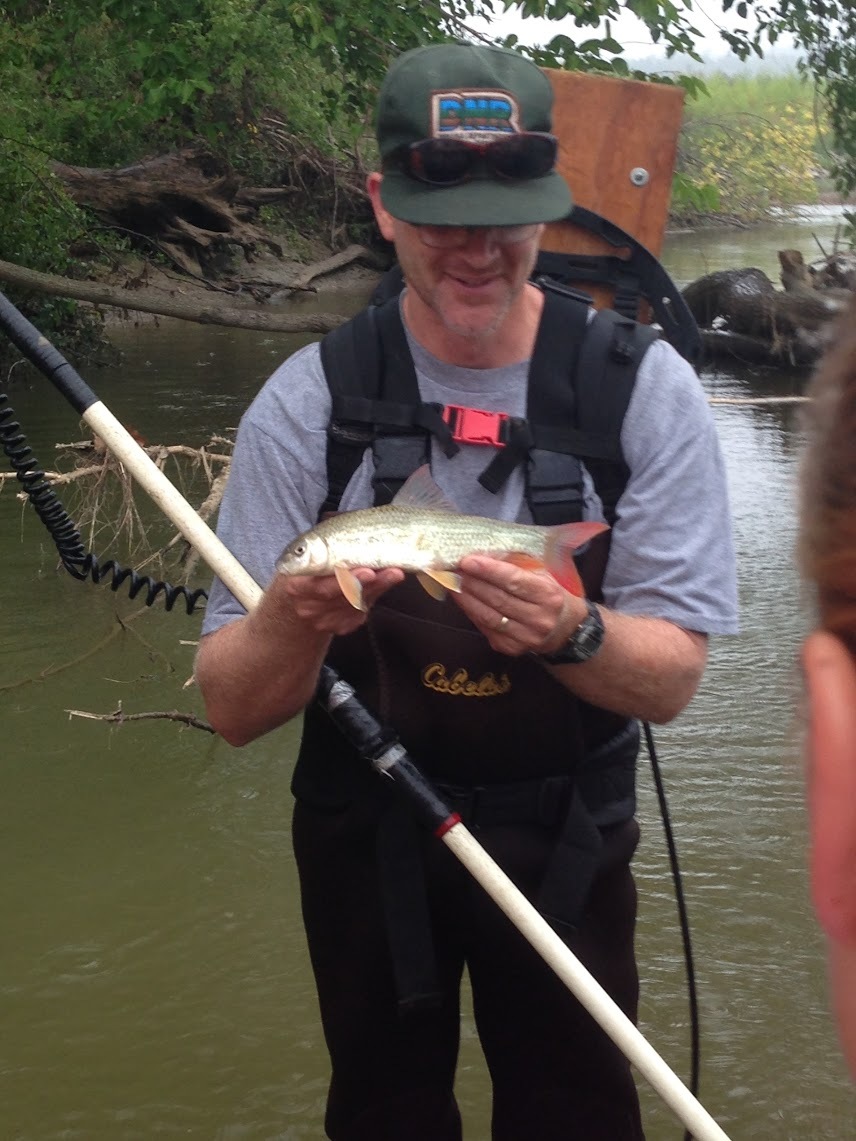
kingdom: Animalia
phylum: Chordata
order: Cypriniformes
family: Catostomidae
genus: Moxostoma
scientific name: Moxostoma macrolepidotum
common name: Shorthead redhorse
